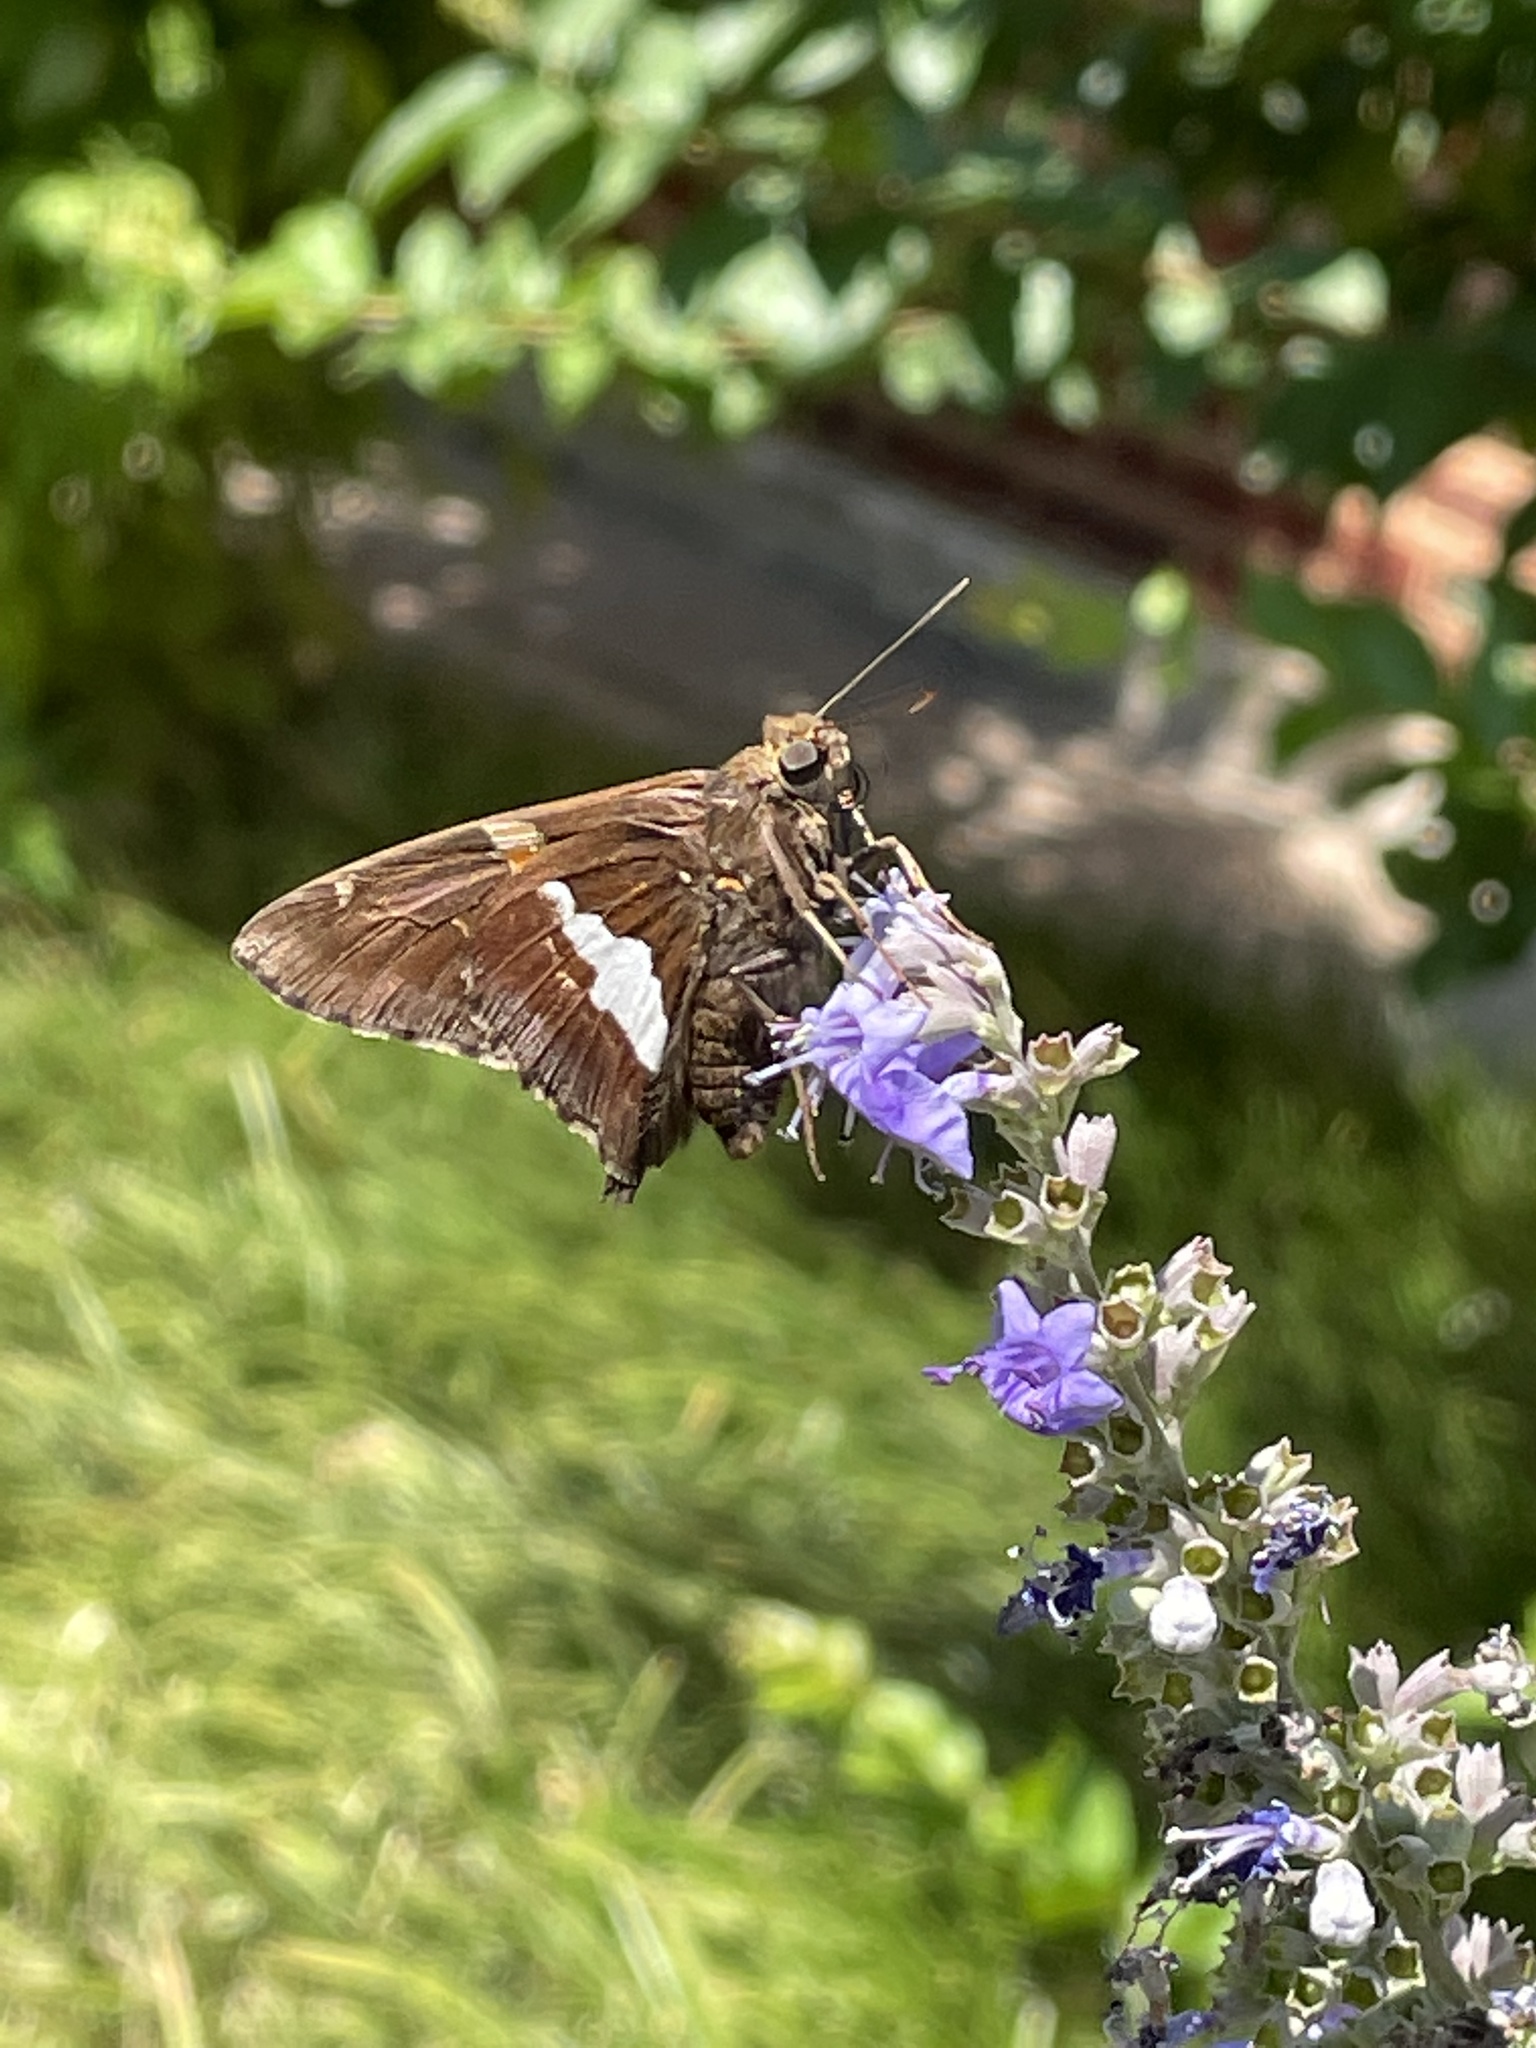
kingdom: Animalia
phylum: Arthropoda
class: Insecta
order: Lepidoptera
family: Hesperiidae
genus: Epargyreus
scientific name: Epargyreus clarus
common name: Silver-spotted skipper
